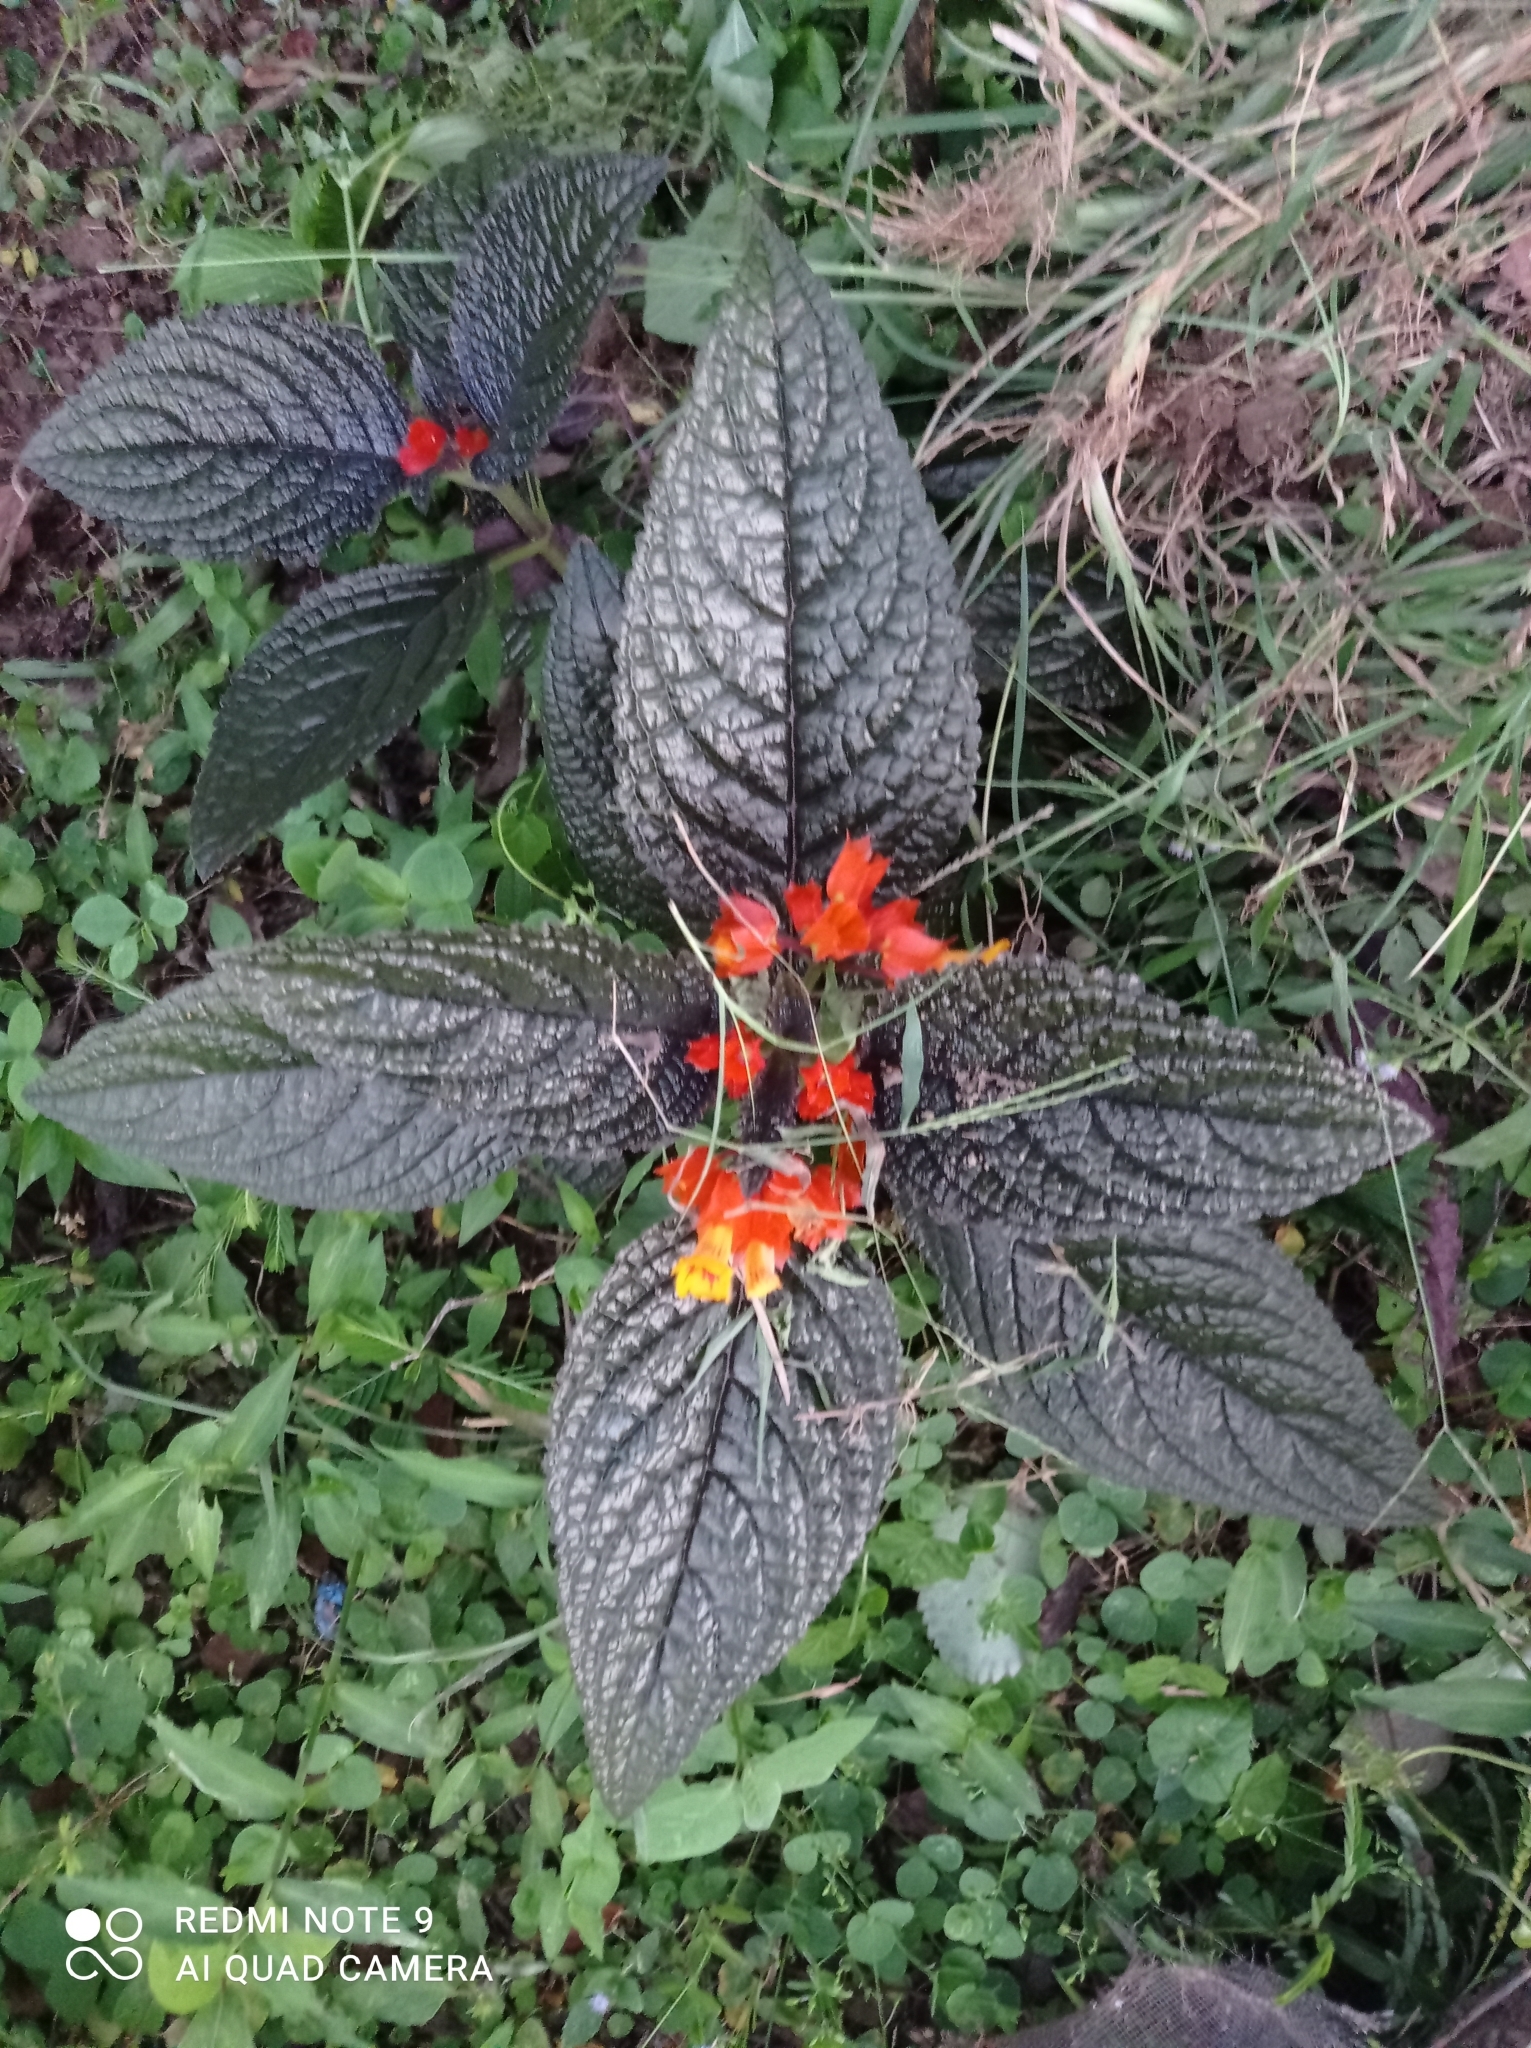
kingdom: Plantae
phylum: Tracheophyta
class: Magnoliopsida
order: Lamiales
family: Gesneriaceae
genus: Chrysothemis
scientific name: Chrysothemis pulchella
